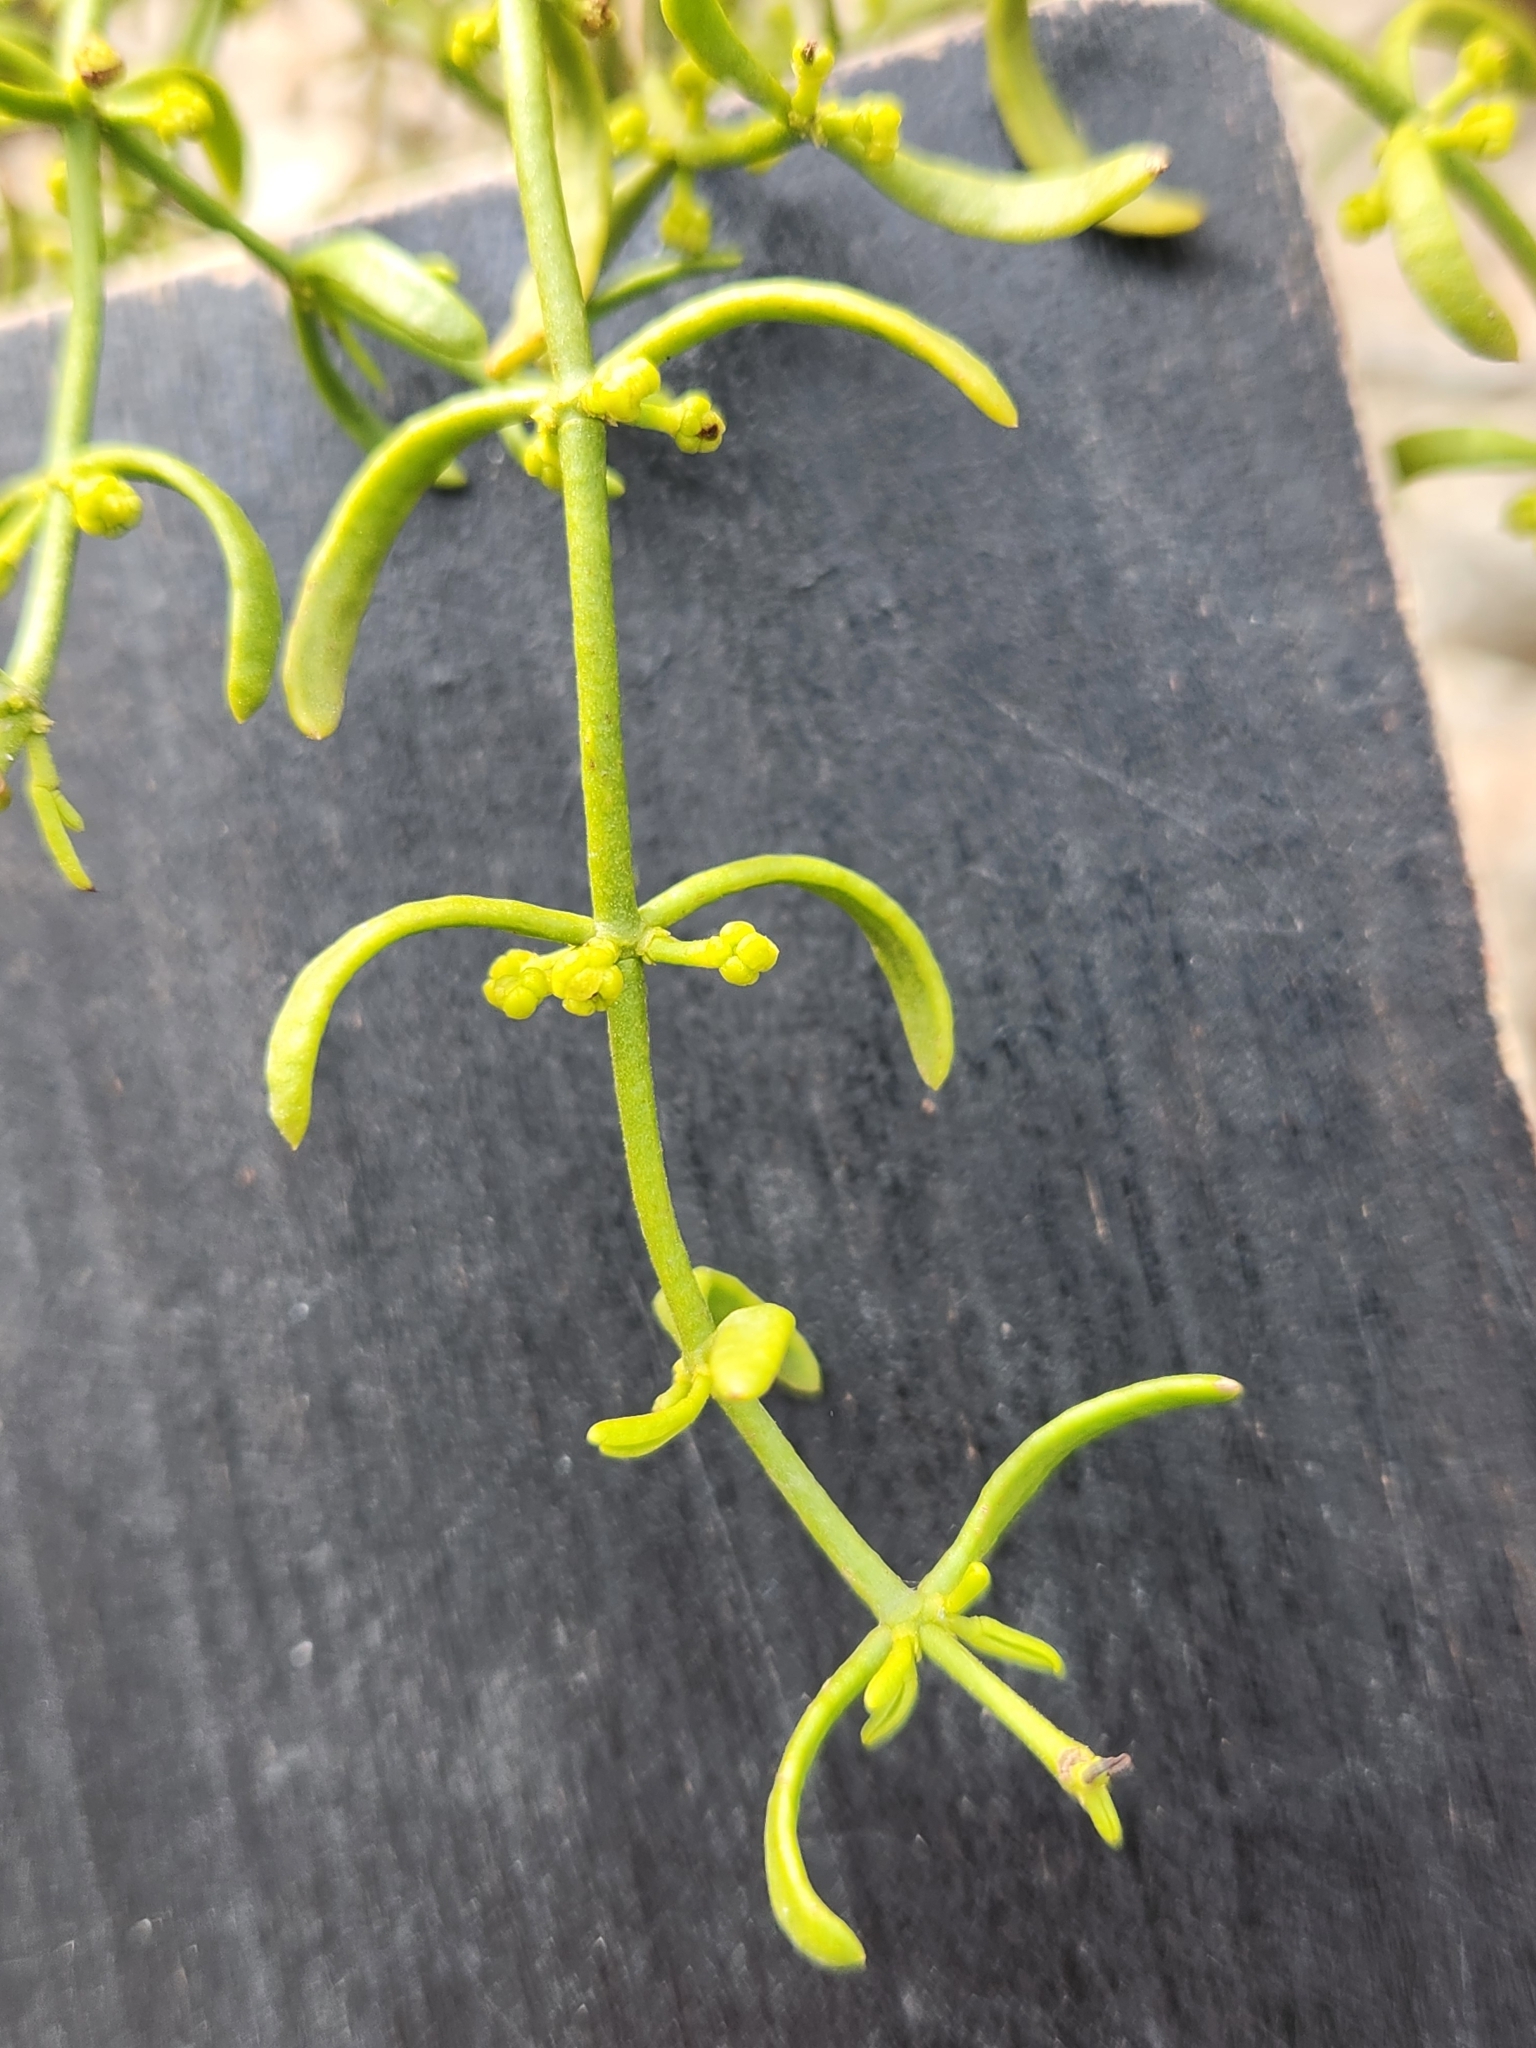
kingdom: Plantae
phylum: Tracheophyta
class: Magnoliopsida
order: Santalales
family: Viscaceae
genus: Phoradendron
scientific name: Phoradendron hawksworthii
